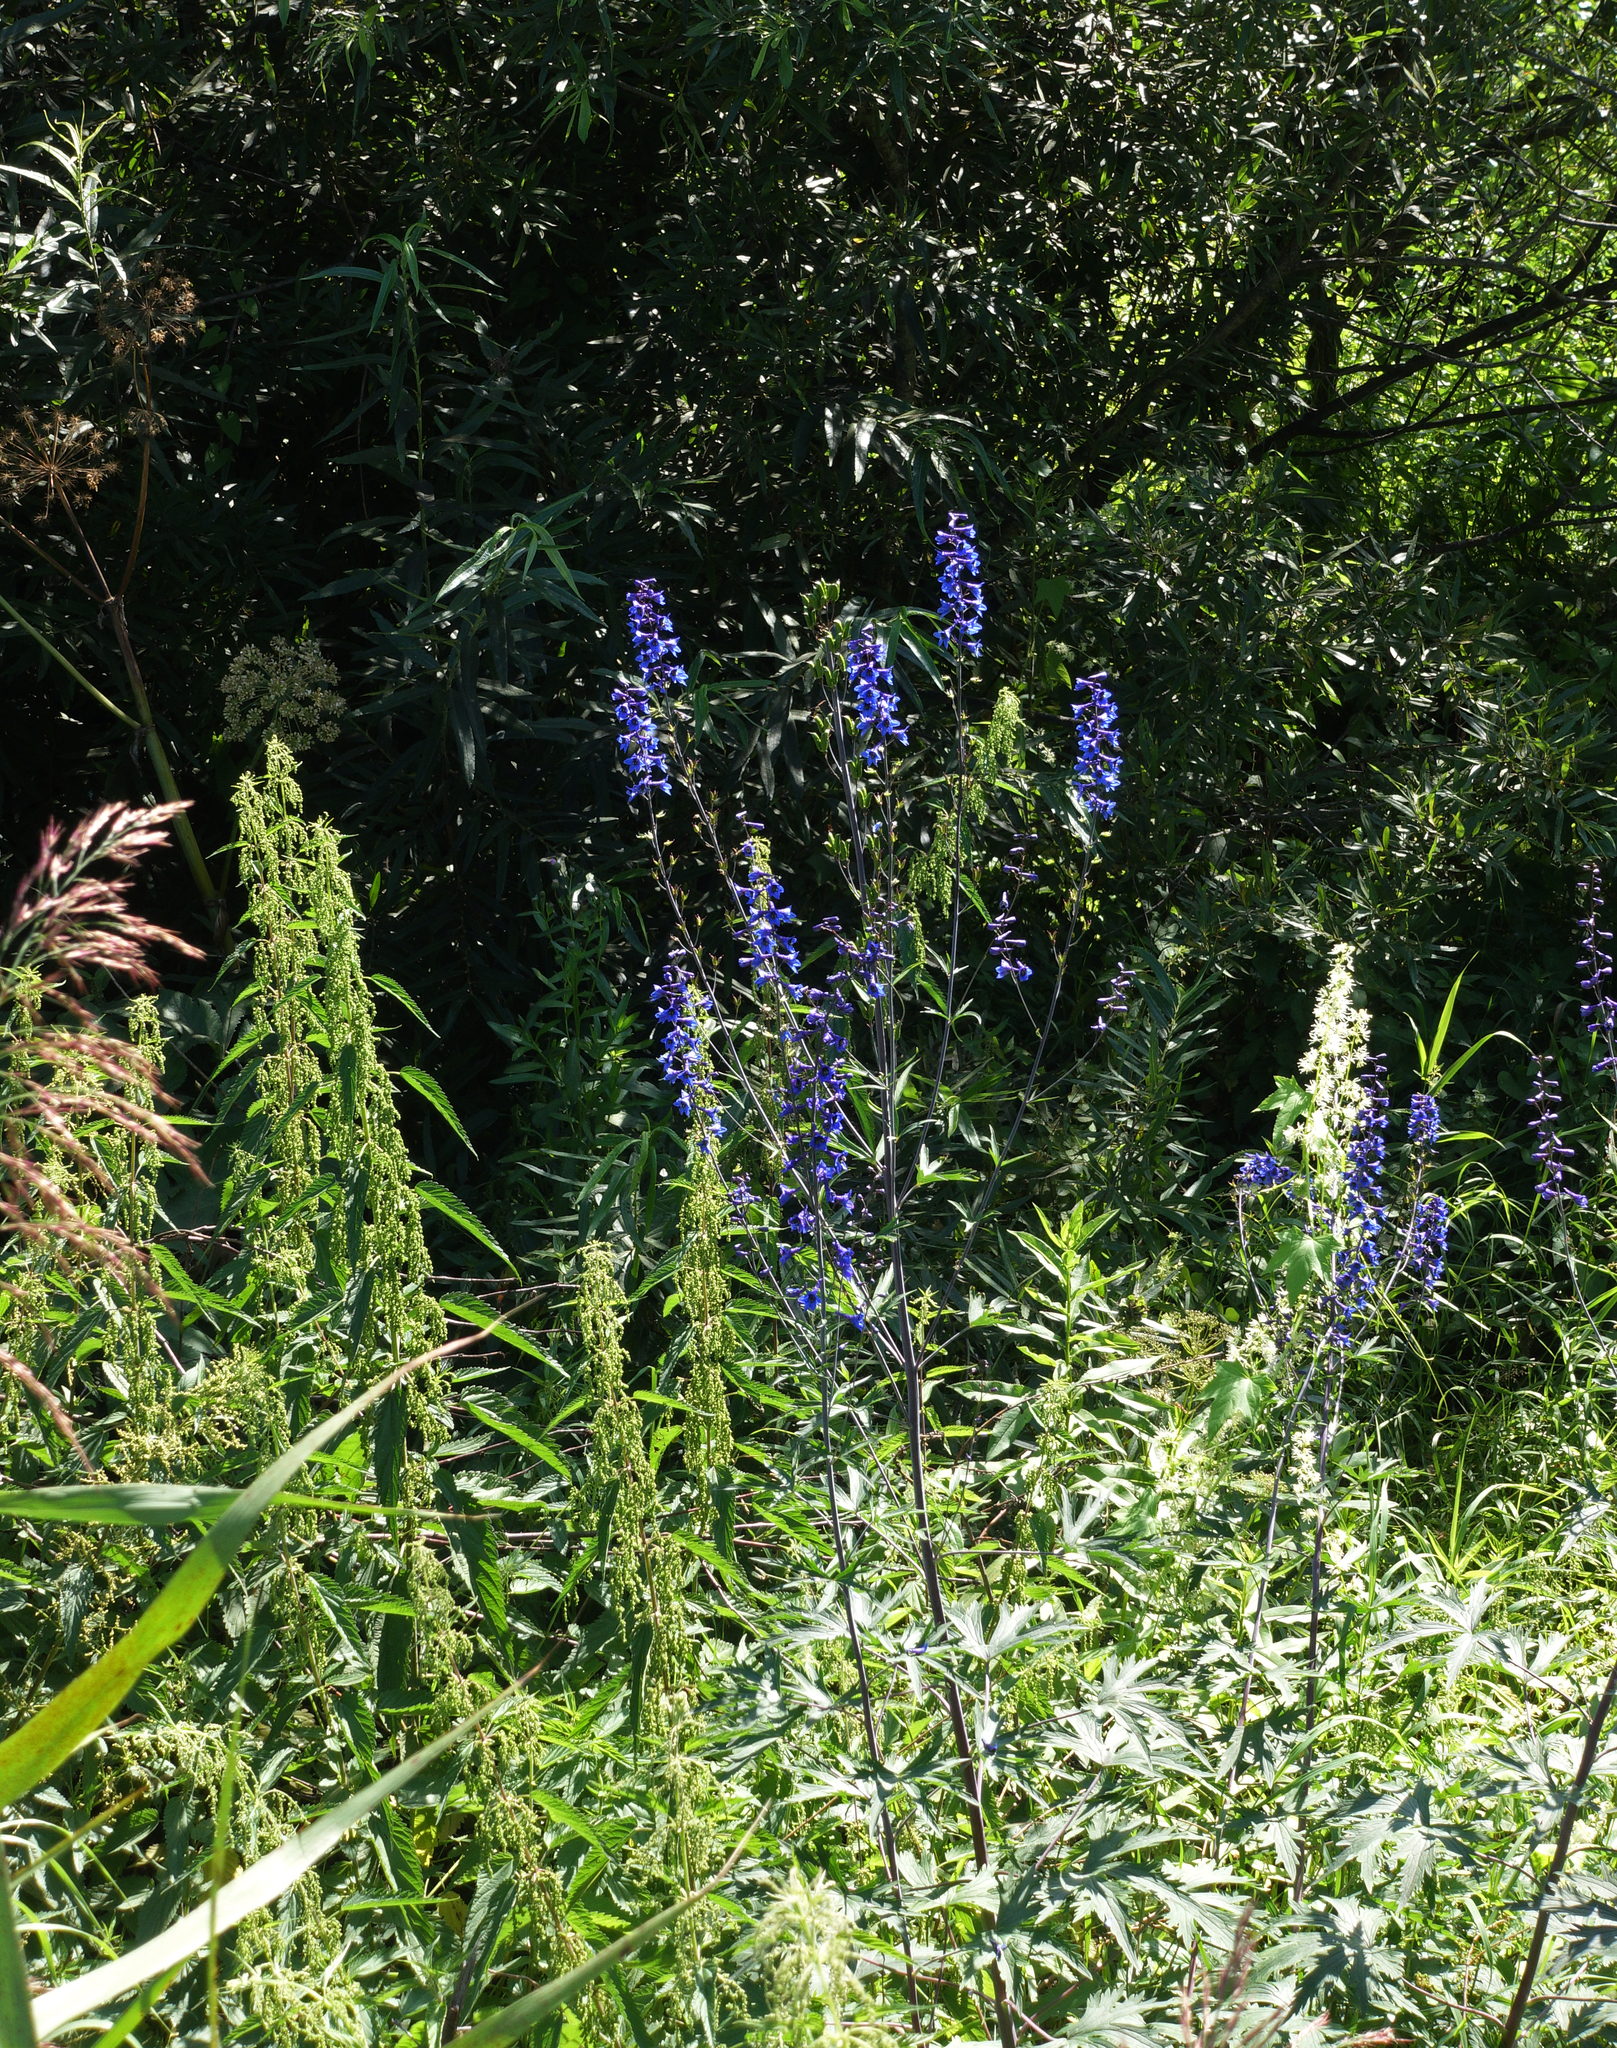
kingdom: Plantae
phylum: Tracheophyta
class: Magnoliopsida
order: Ranunculales
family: Ranunculaceae
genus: Delphinium
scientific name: Delphinium elatum
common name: Candle larkspur
